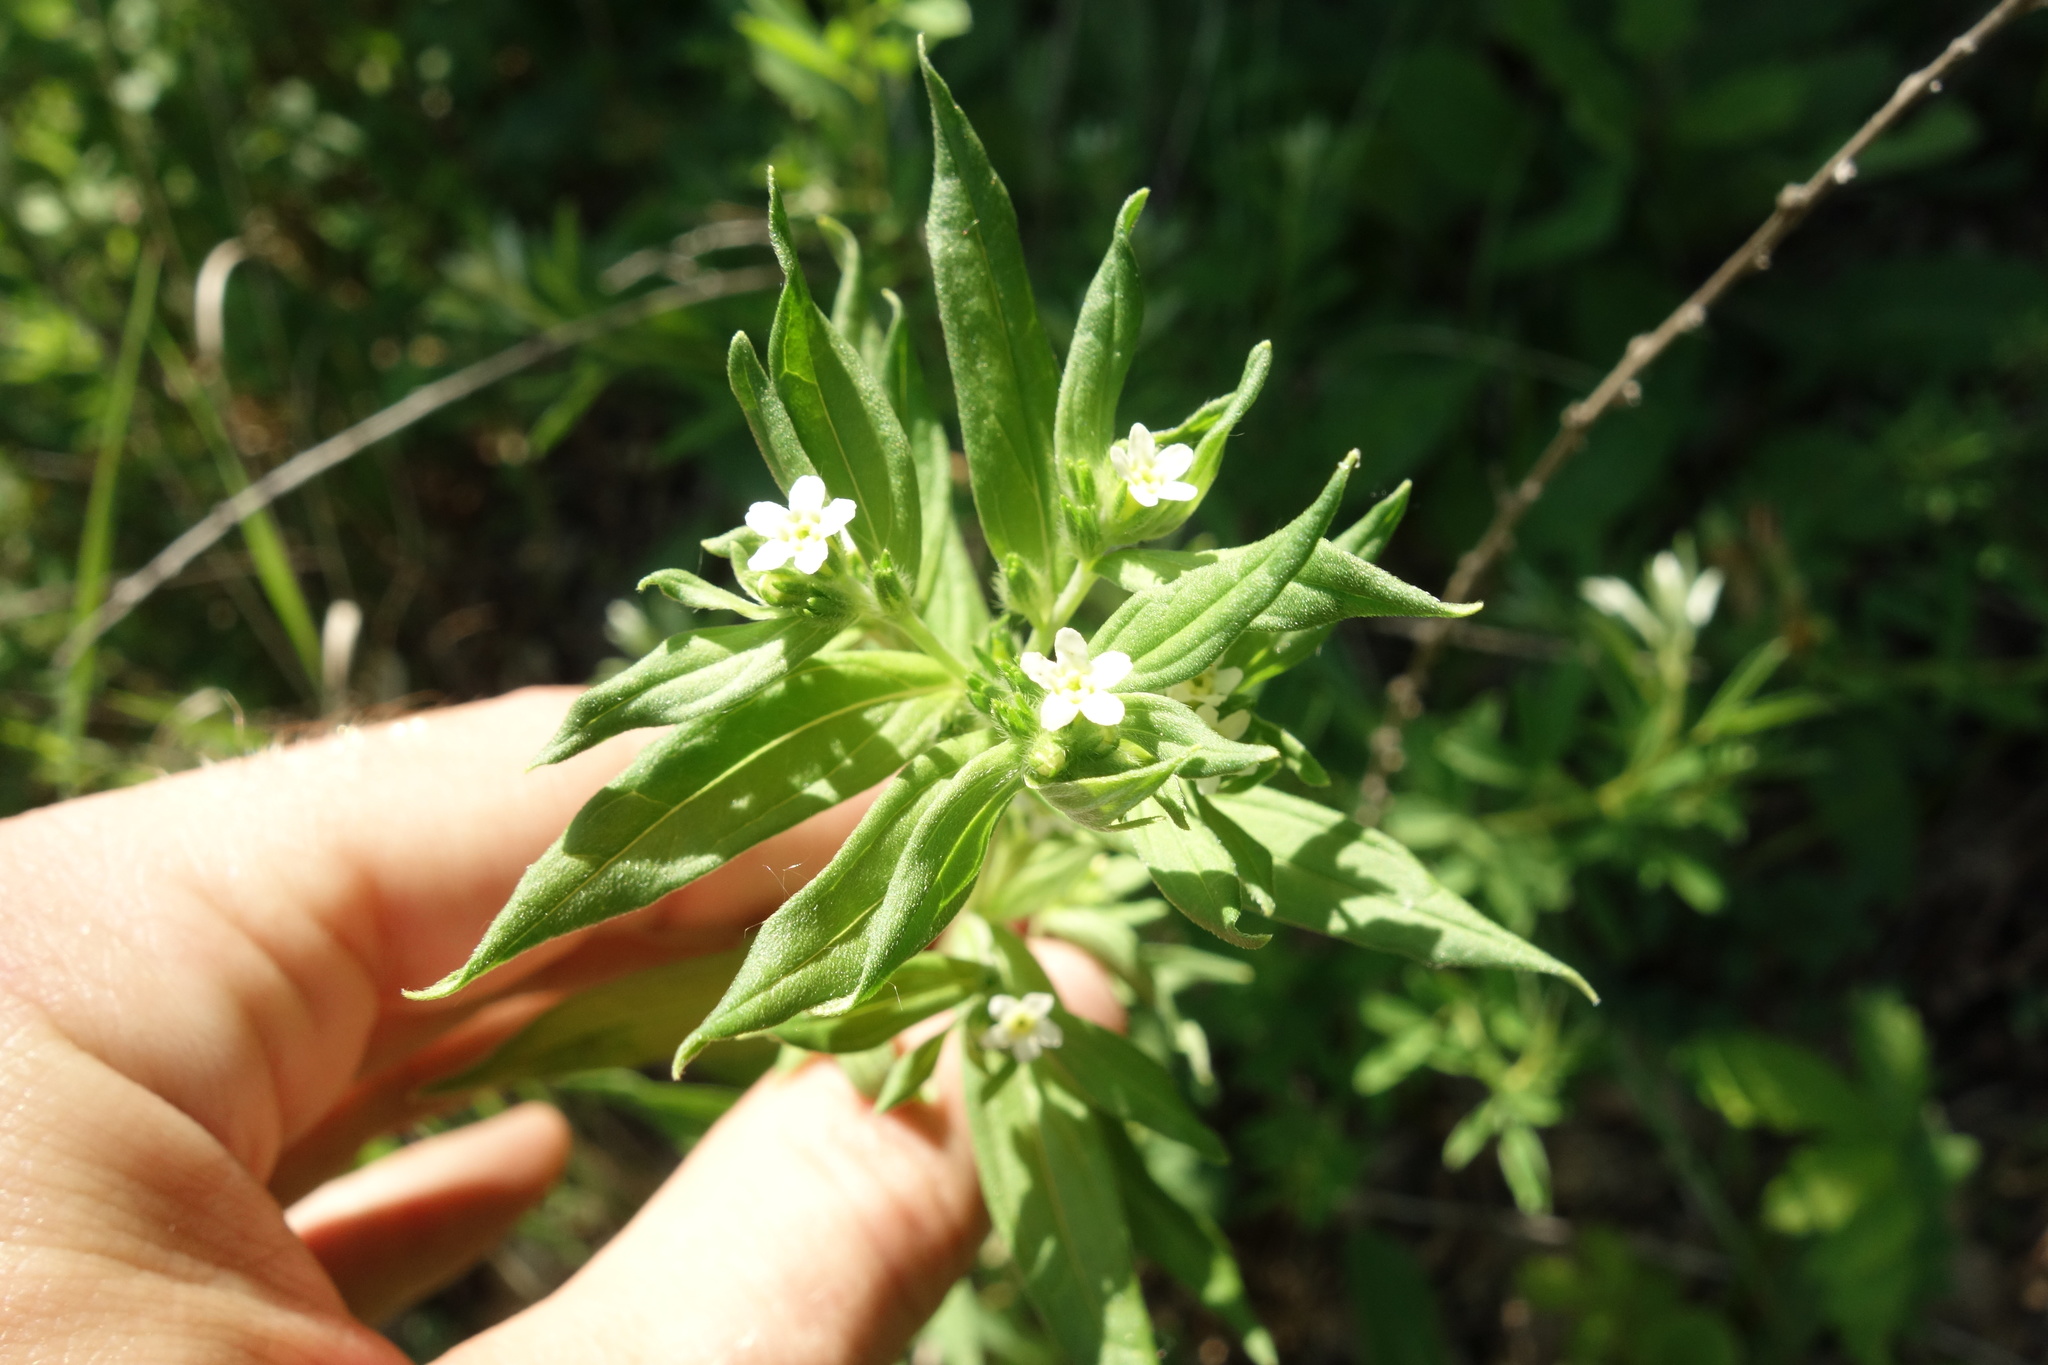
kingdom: Plantae
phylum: Tracheophyta
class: Magnoliopsida
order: Boraginales
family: Boraginaceae
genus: Lithospermum
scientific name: Lithospermum officinale
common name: Common gromwell
